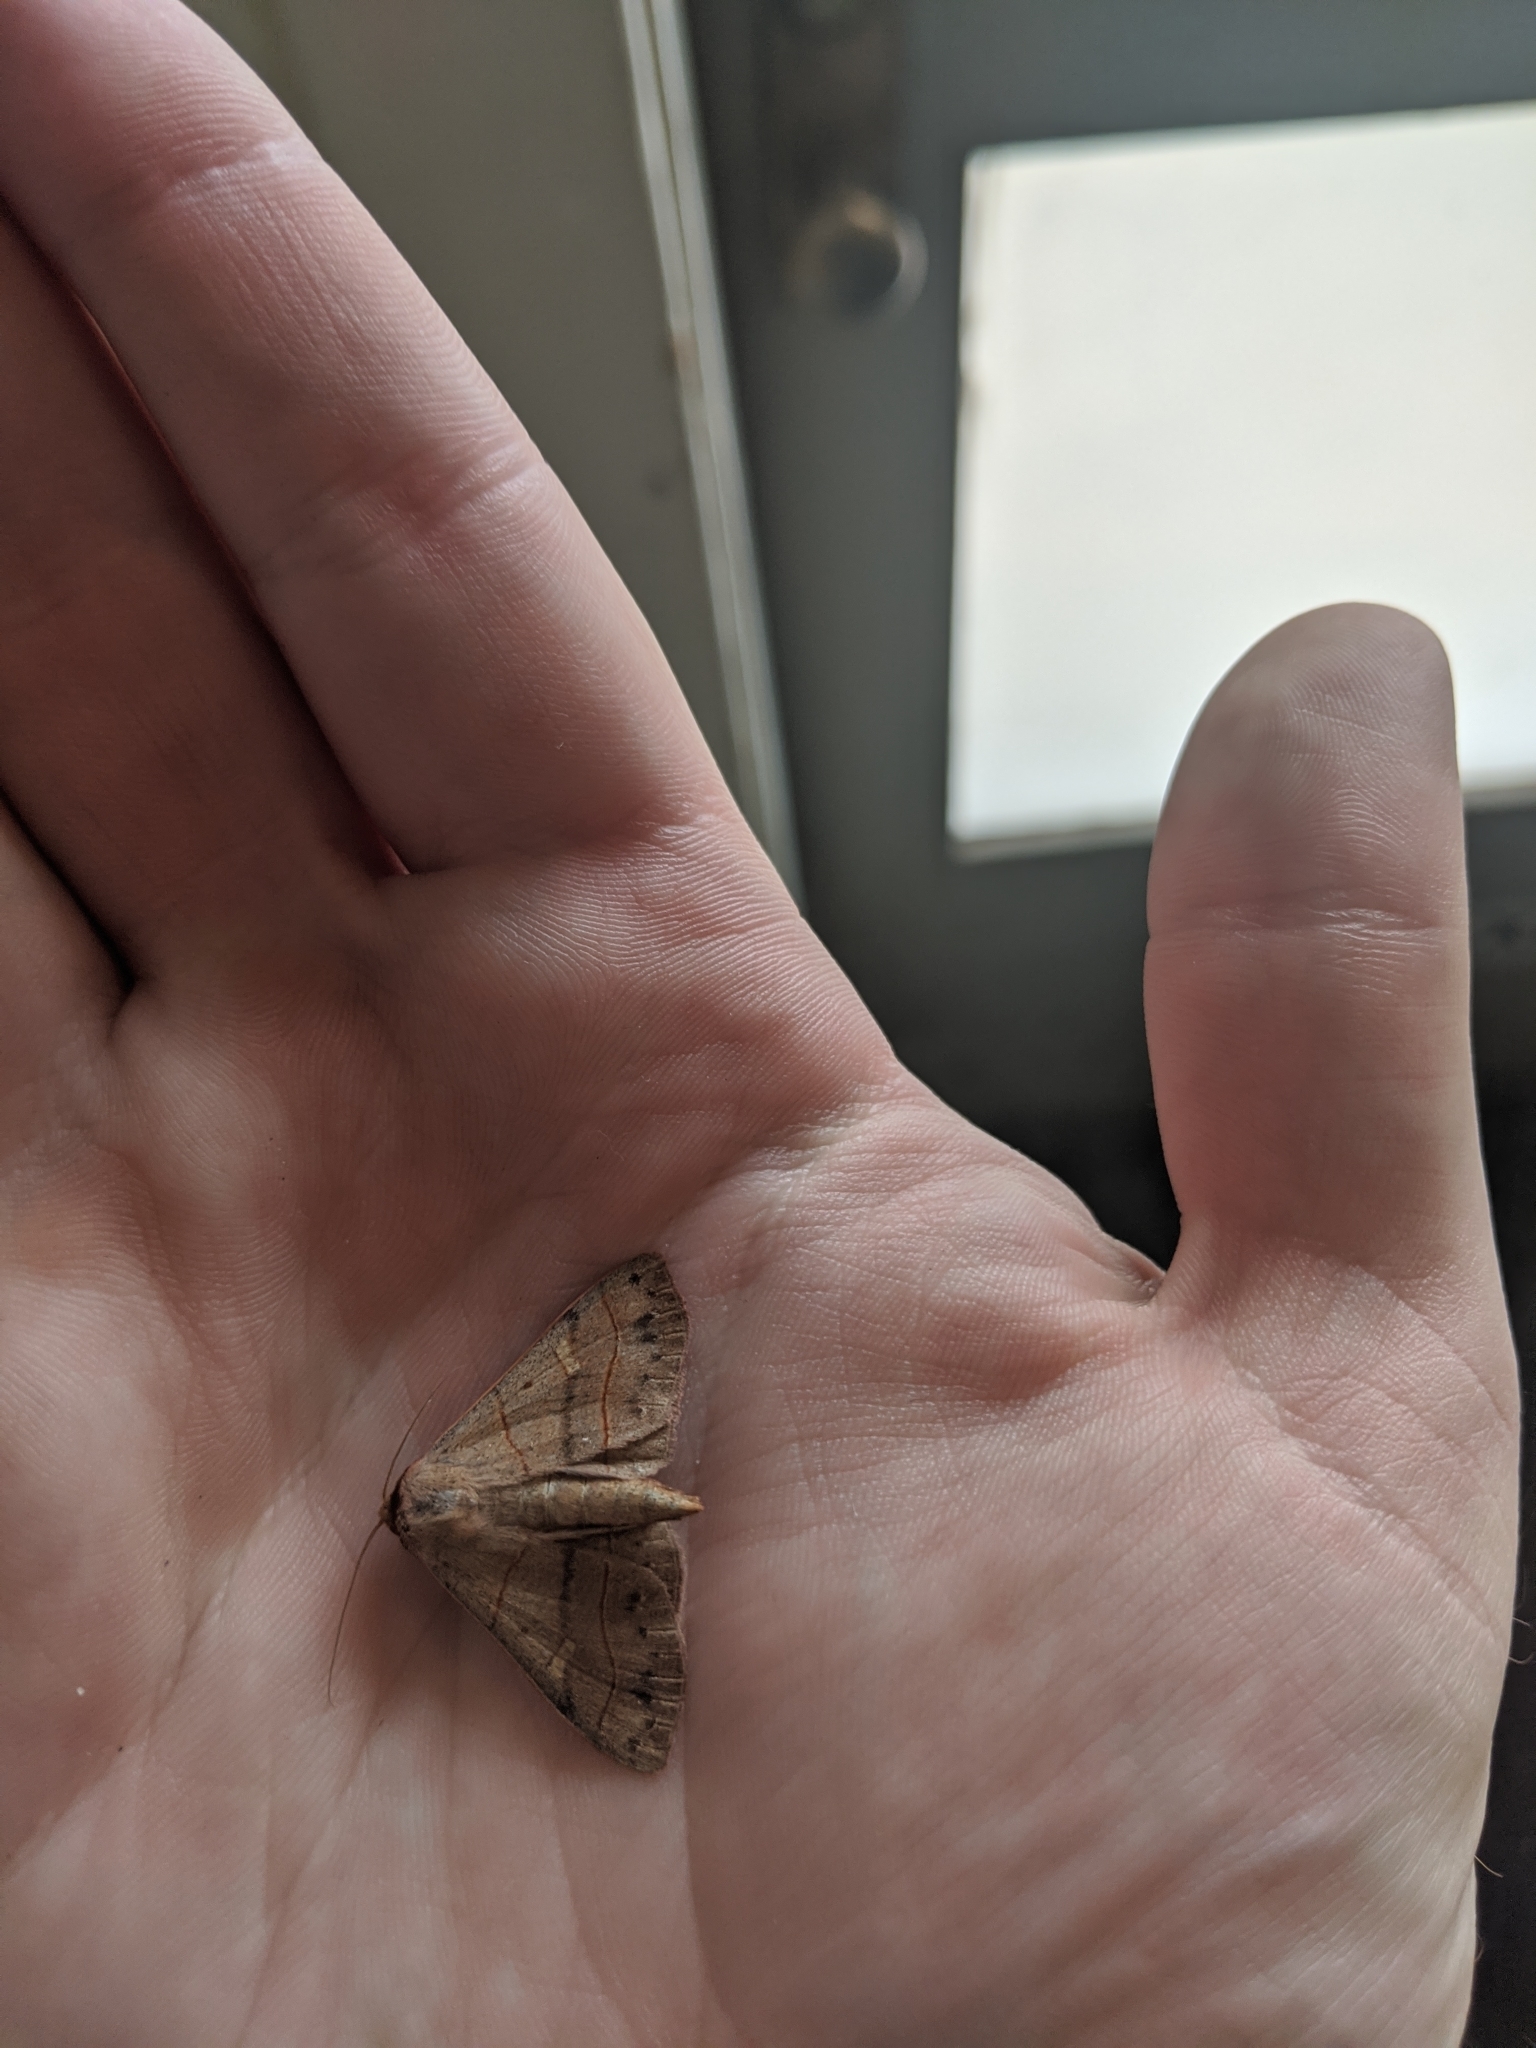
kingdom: Animalia
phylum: Arthropoda
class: Insecta
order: Lepidoptera
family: Erebidae
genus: Panopoda
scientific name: Panopoda rufimargo
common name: Red-lined panopoda moth
